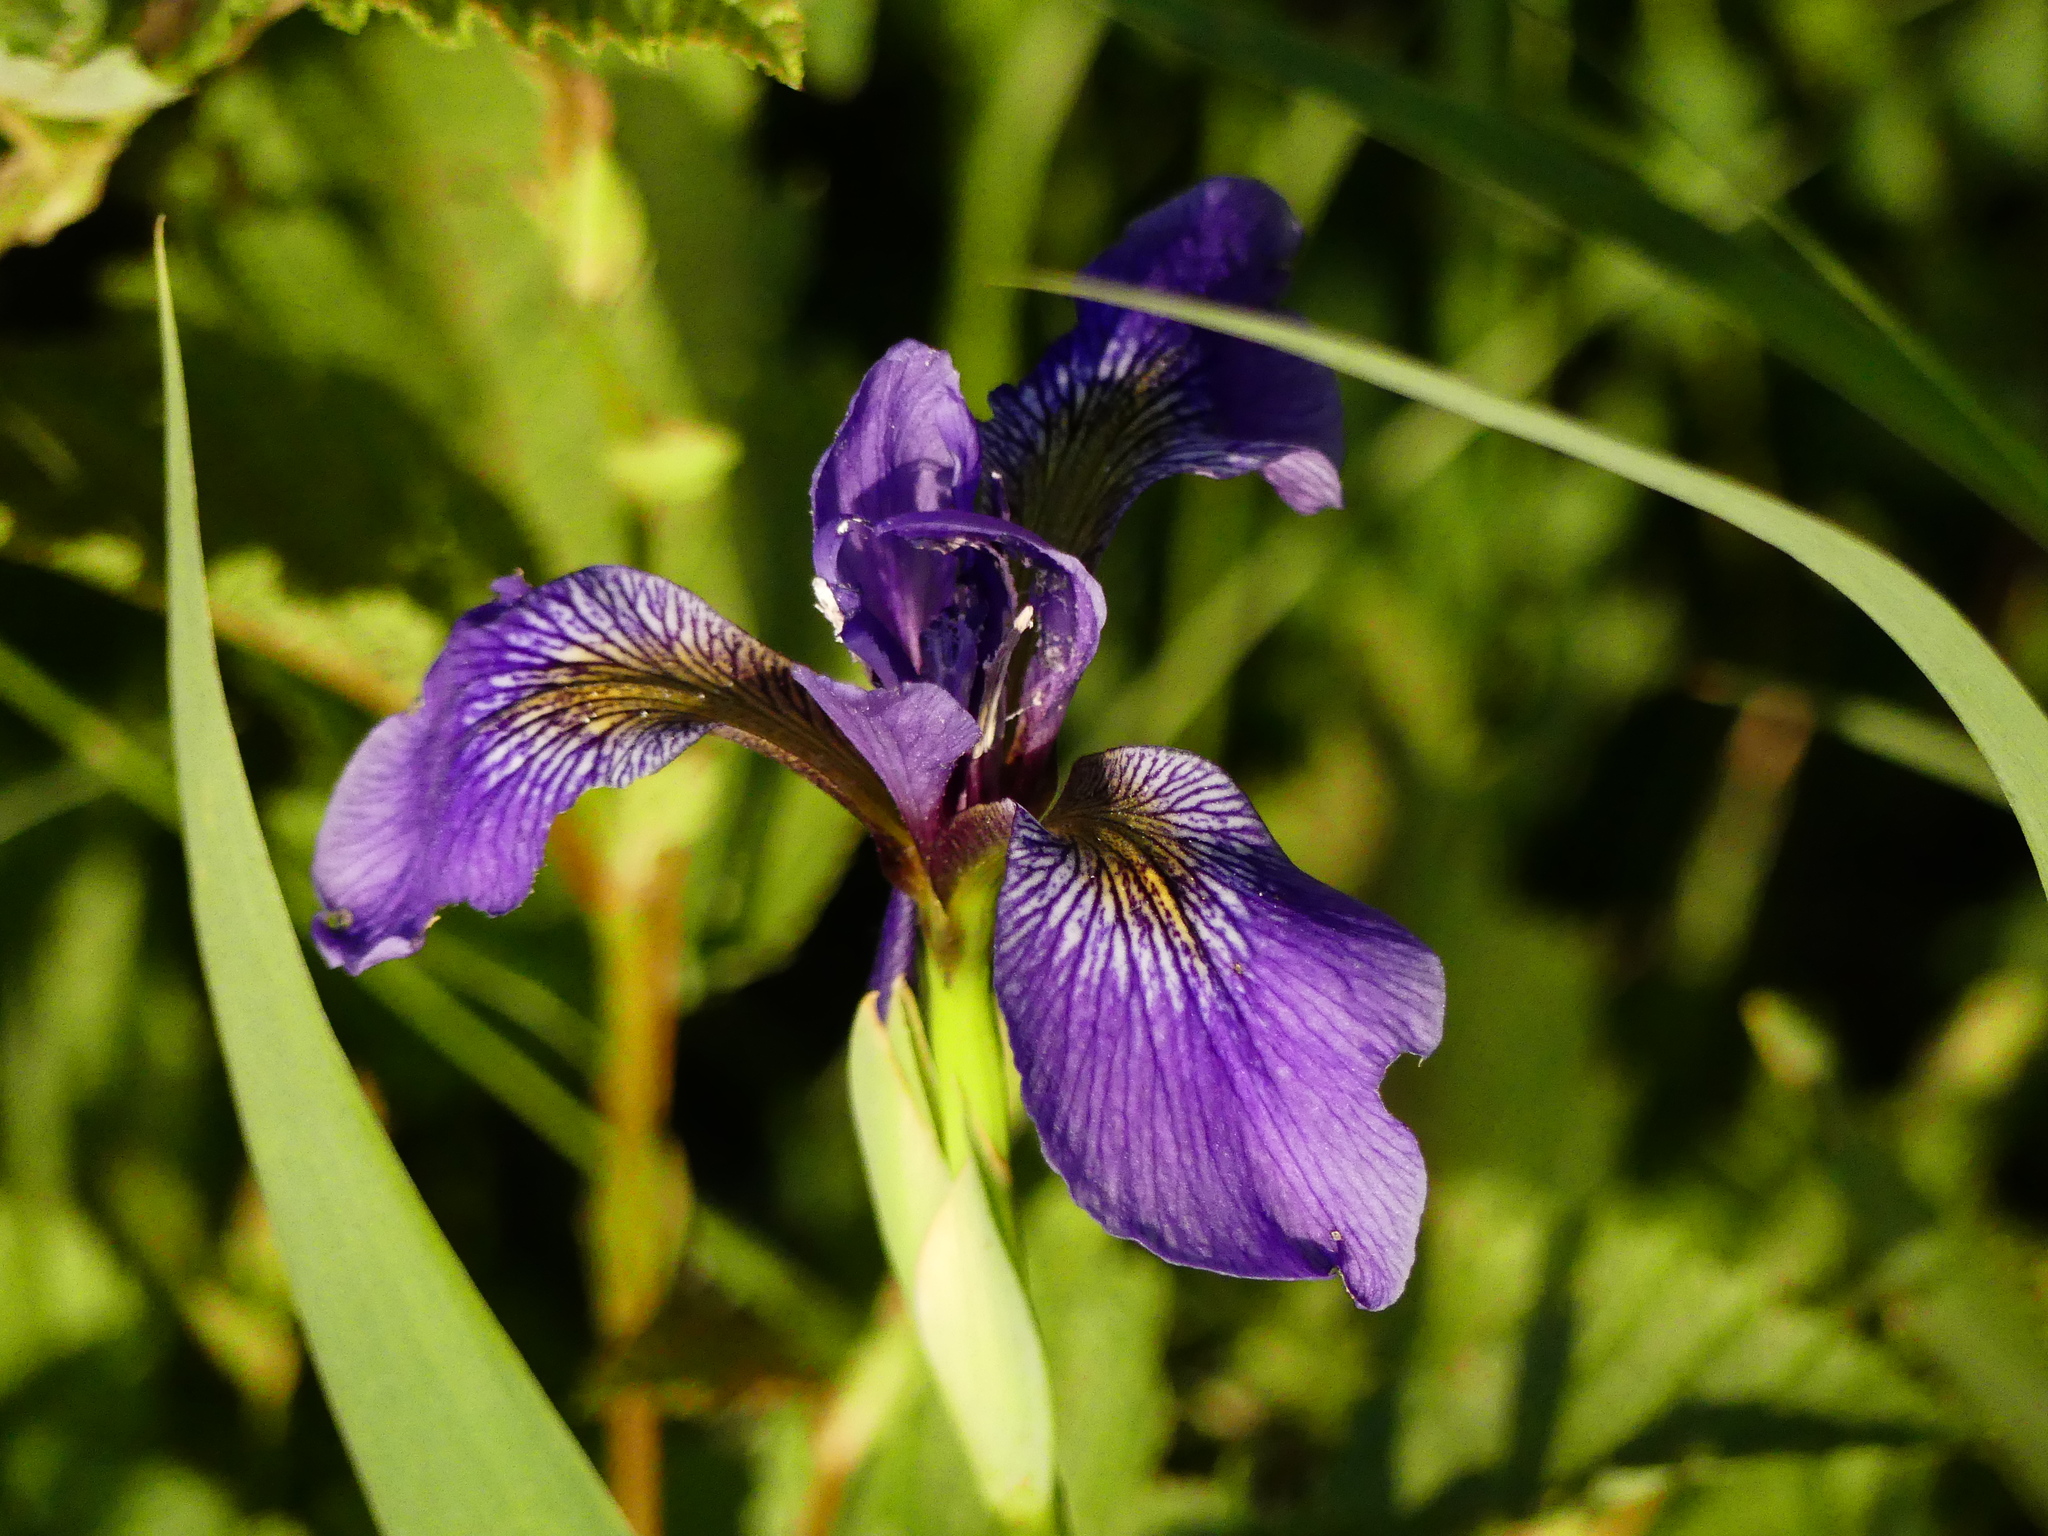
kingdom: Plantae
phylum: Tracheophyta
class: Liliopsida
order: Asparagales
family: Iridaceae
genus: Iris
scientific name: Iris versicolor
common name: Purple iris
